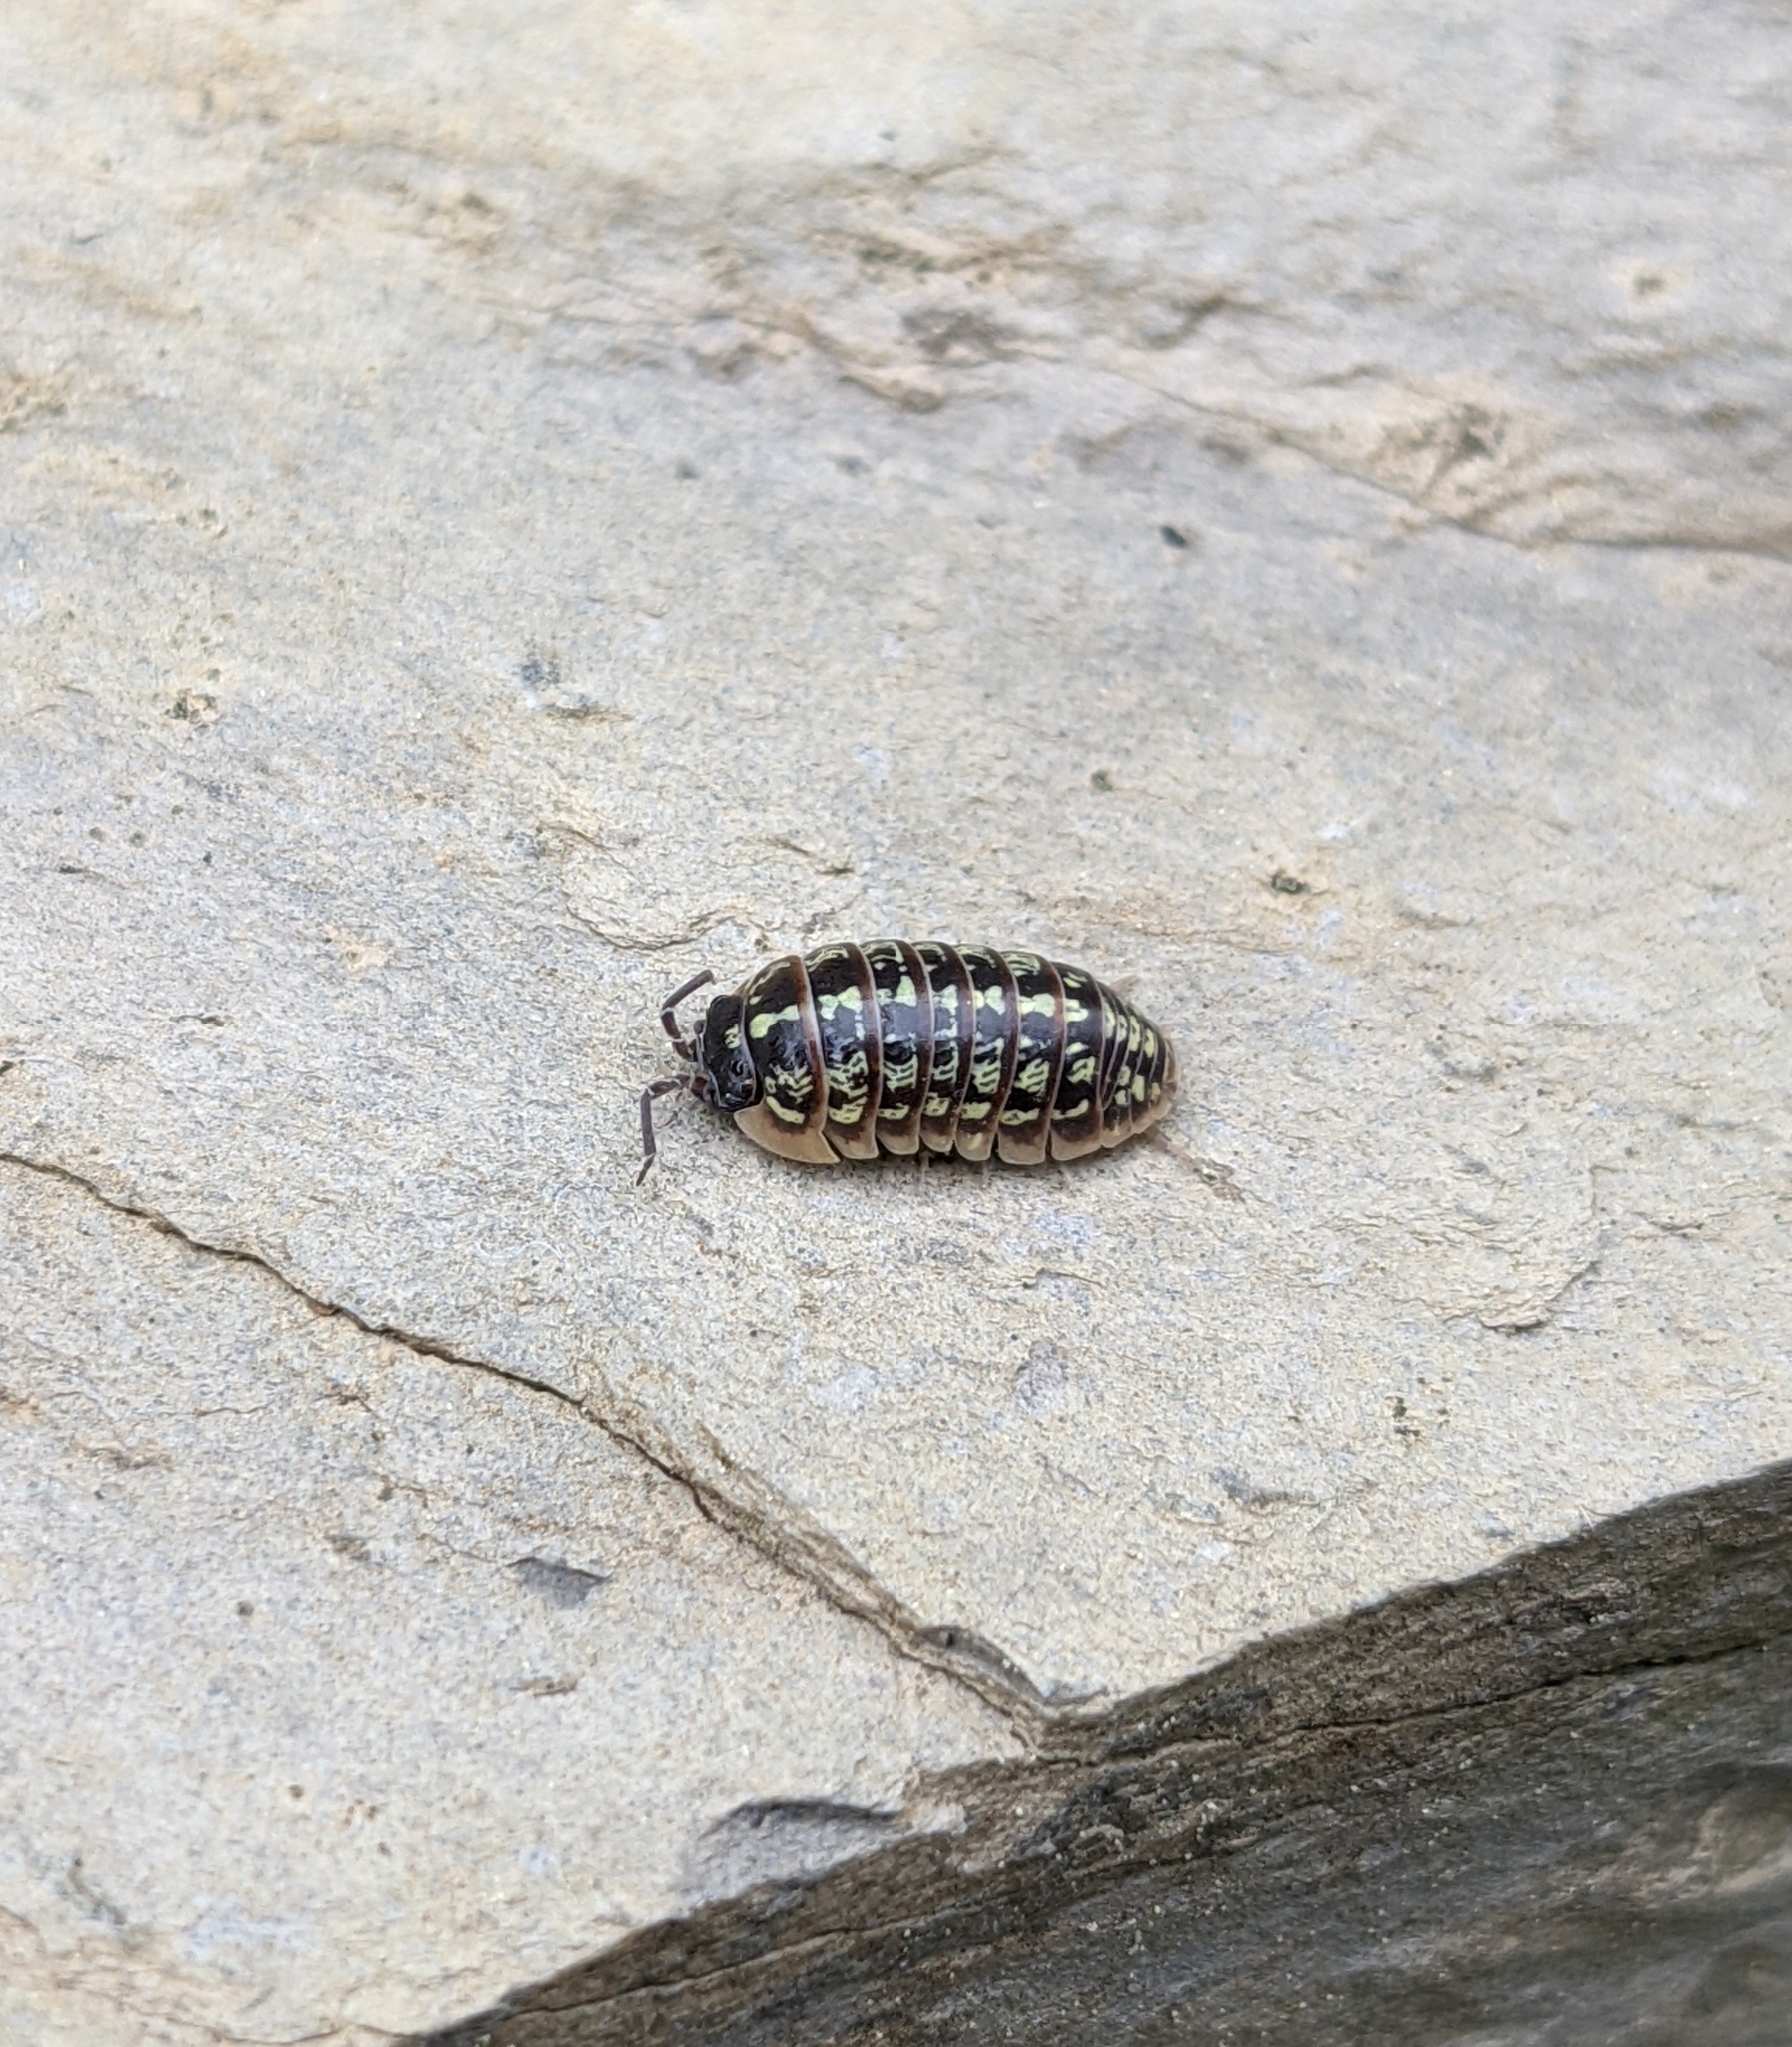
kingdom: Animalia
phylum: Arthropoda
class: Malacostraca
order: Isopoda
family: Armadillidiidae
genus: Armadillidium
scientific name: Armadillidium versicolor
